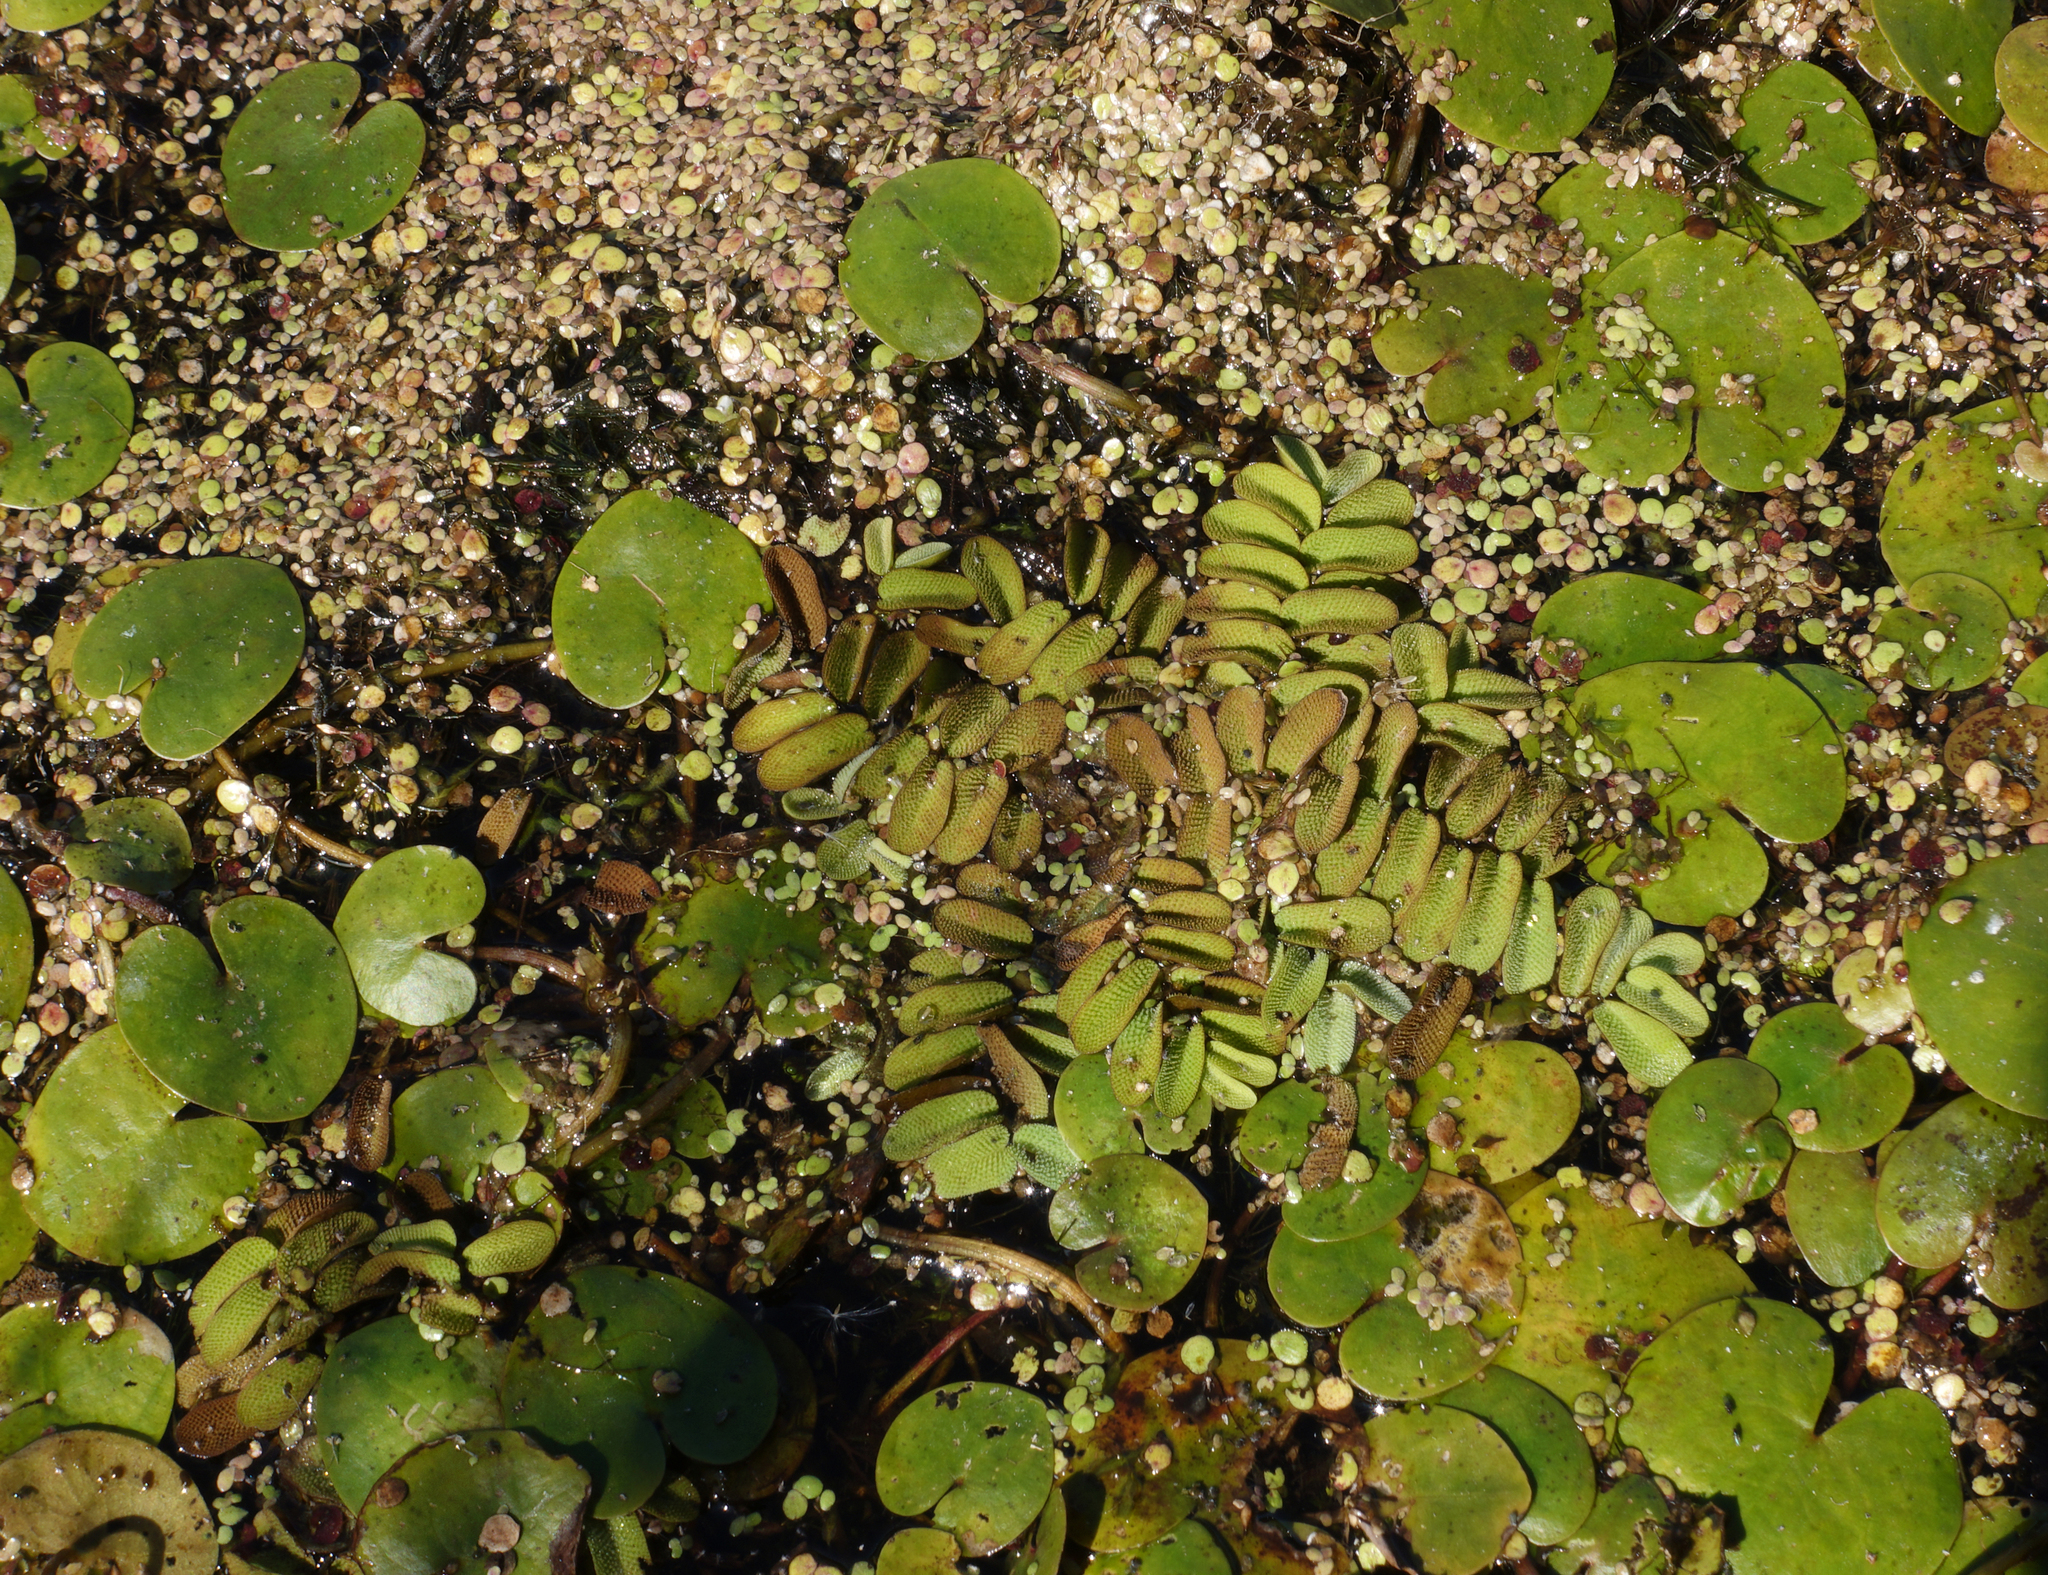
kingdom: Plantae
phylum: Tracheophyta
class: Polypodiopsida
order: Salviniales
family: Salviniaceae
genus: Salvinia
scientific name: Salvinia natans
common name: Floating fern
